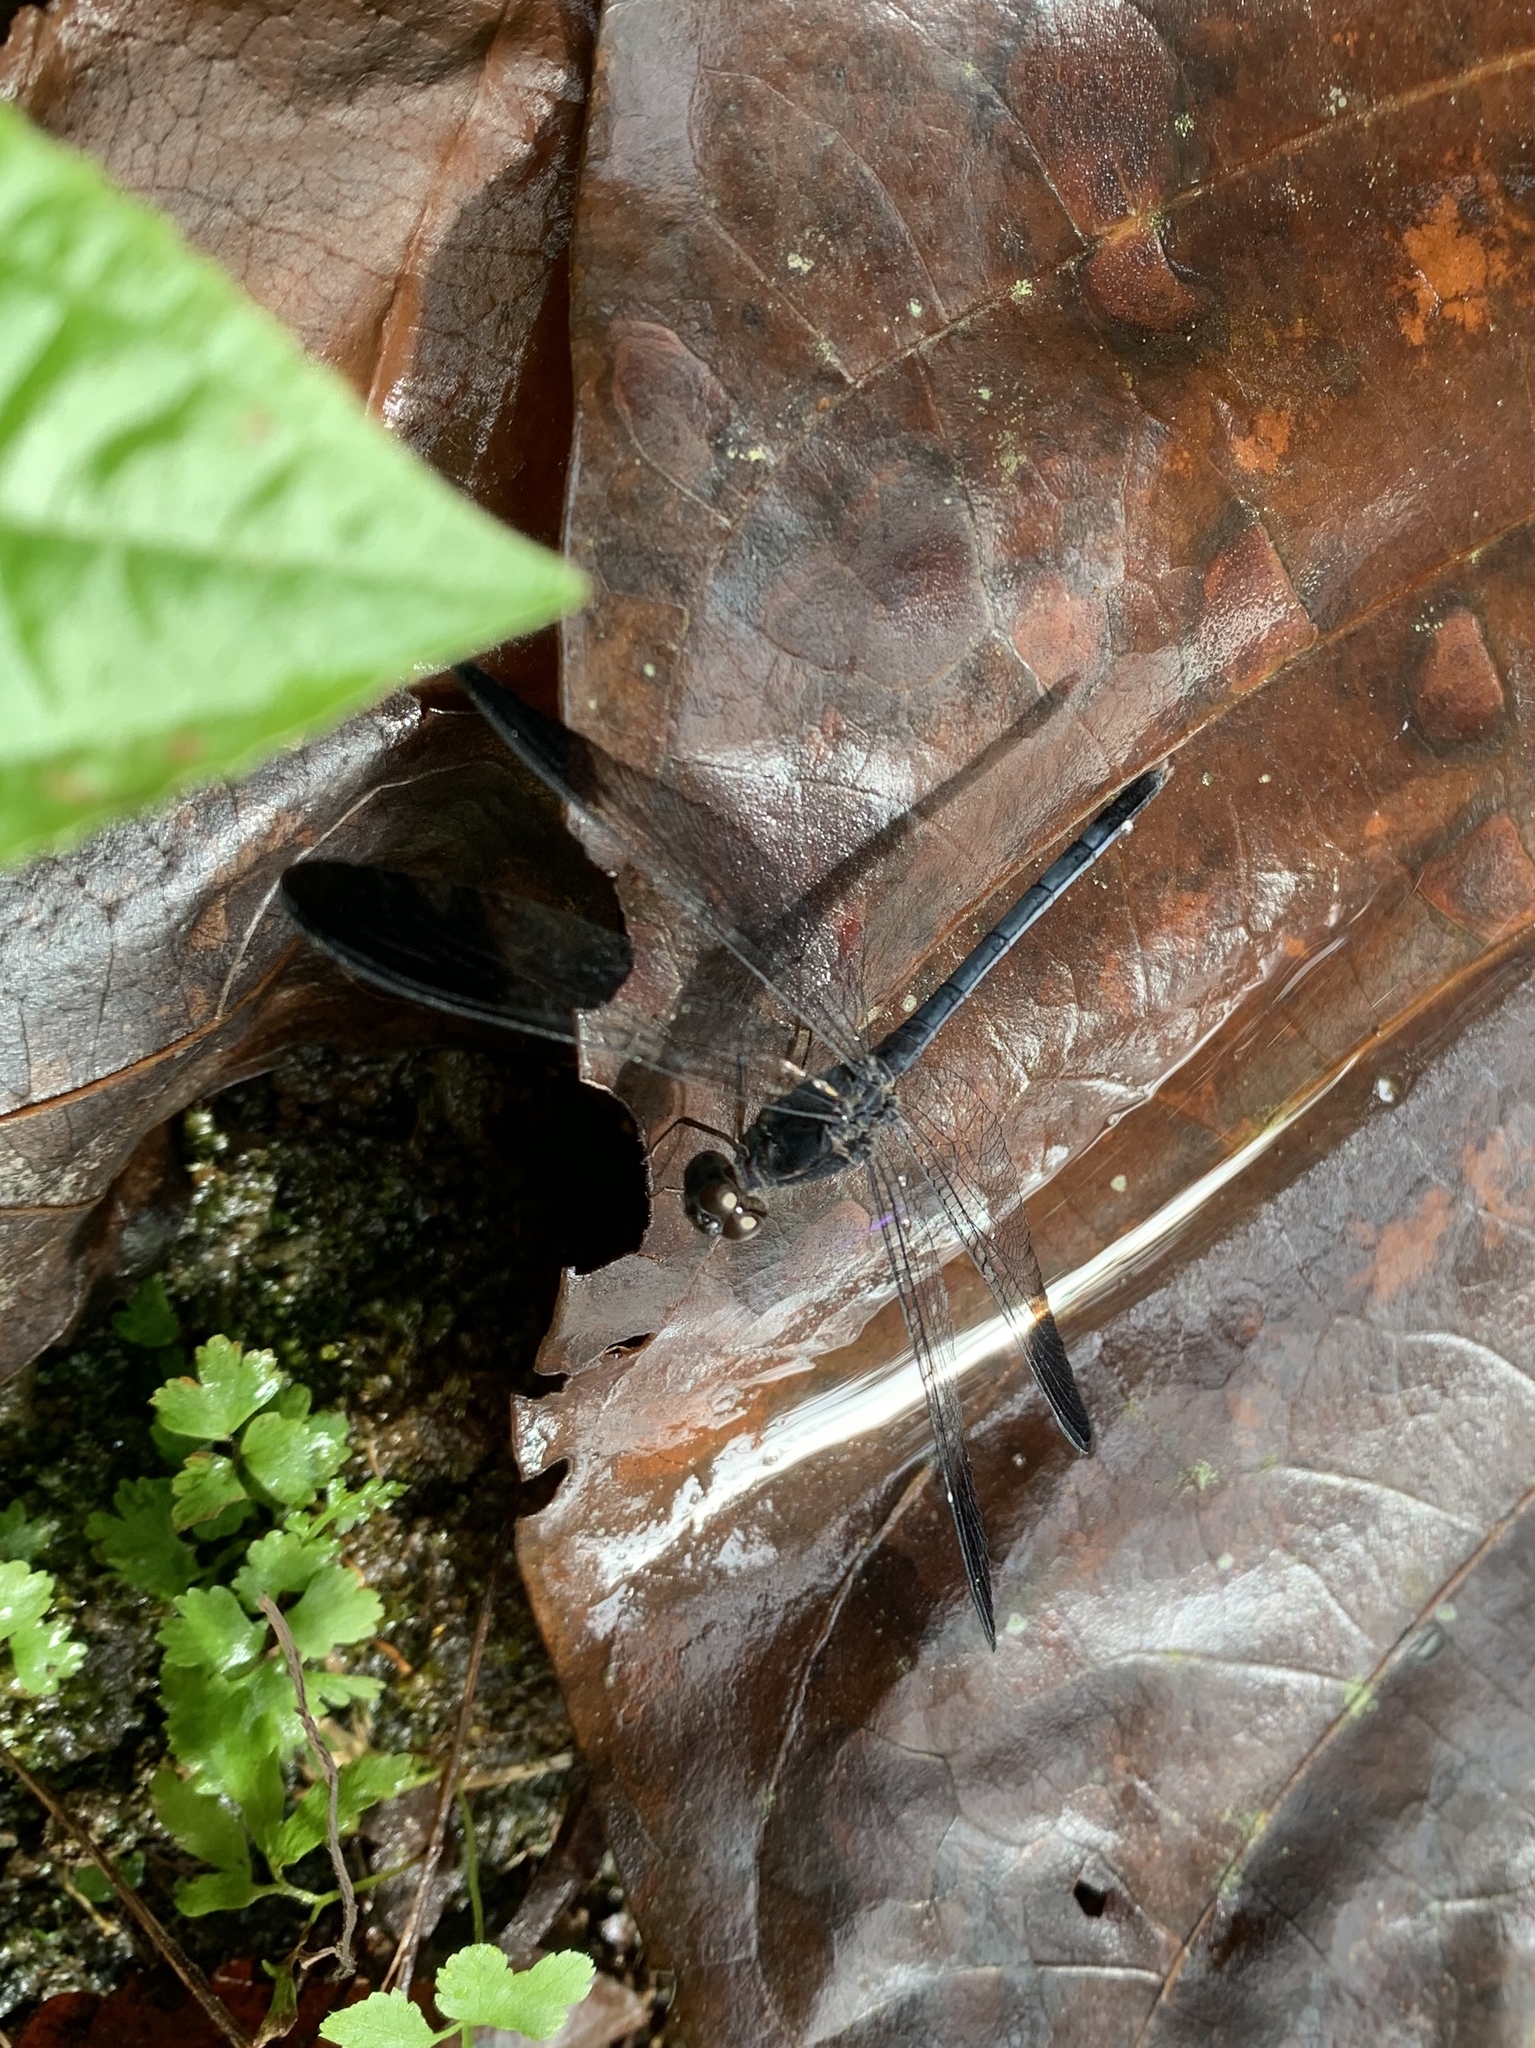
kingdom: Animalia
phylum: Arthropoda
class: Insecta
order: Odonata
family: Libellulidae
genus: Uracis
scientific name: Uracis imbuta
